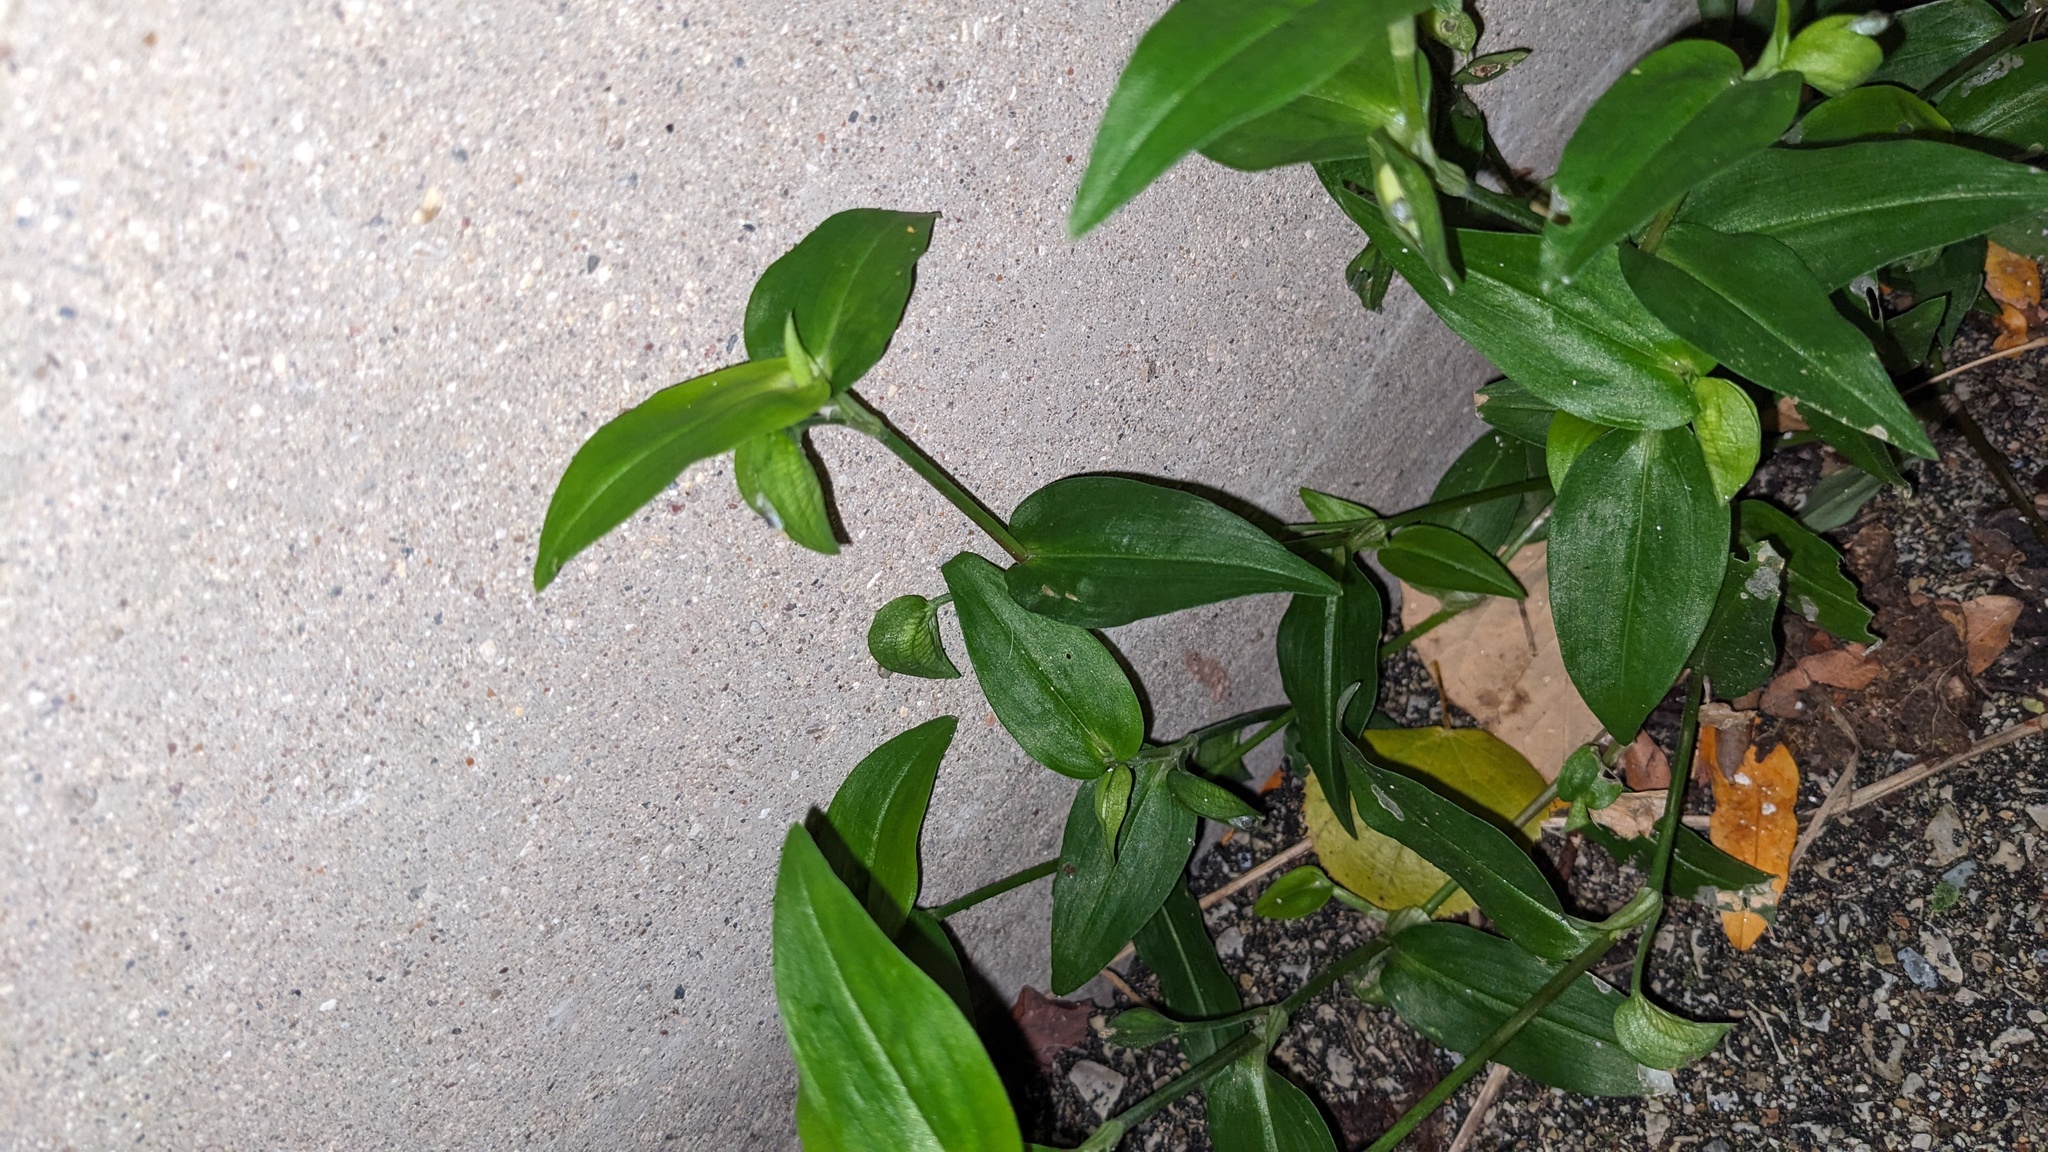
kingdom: Plantae
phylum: Tracheophyta
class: Liliopsida
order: Commelinales
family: Commelinaceae
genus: Commelina
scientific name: Commelina communis
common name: Asiatic dayflower
